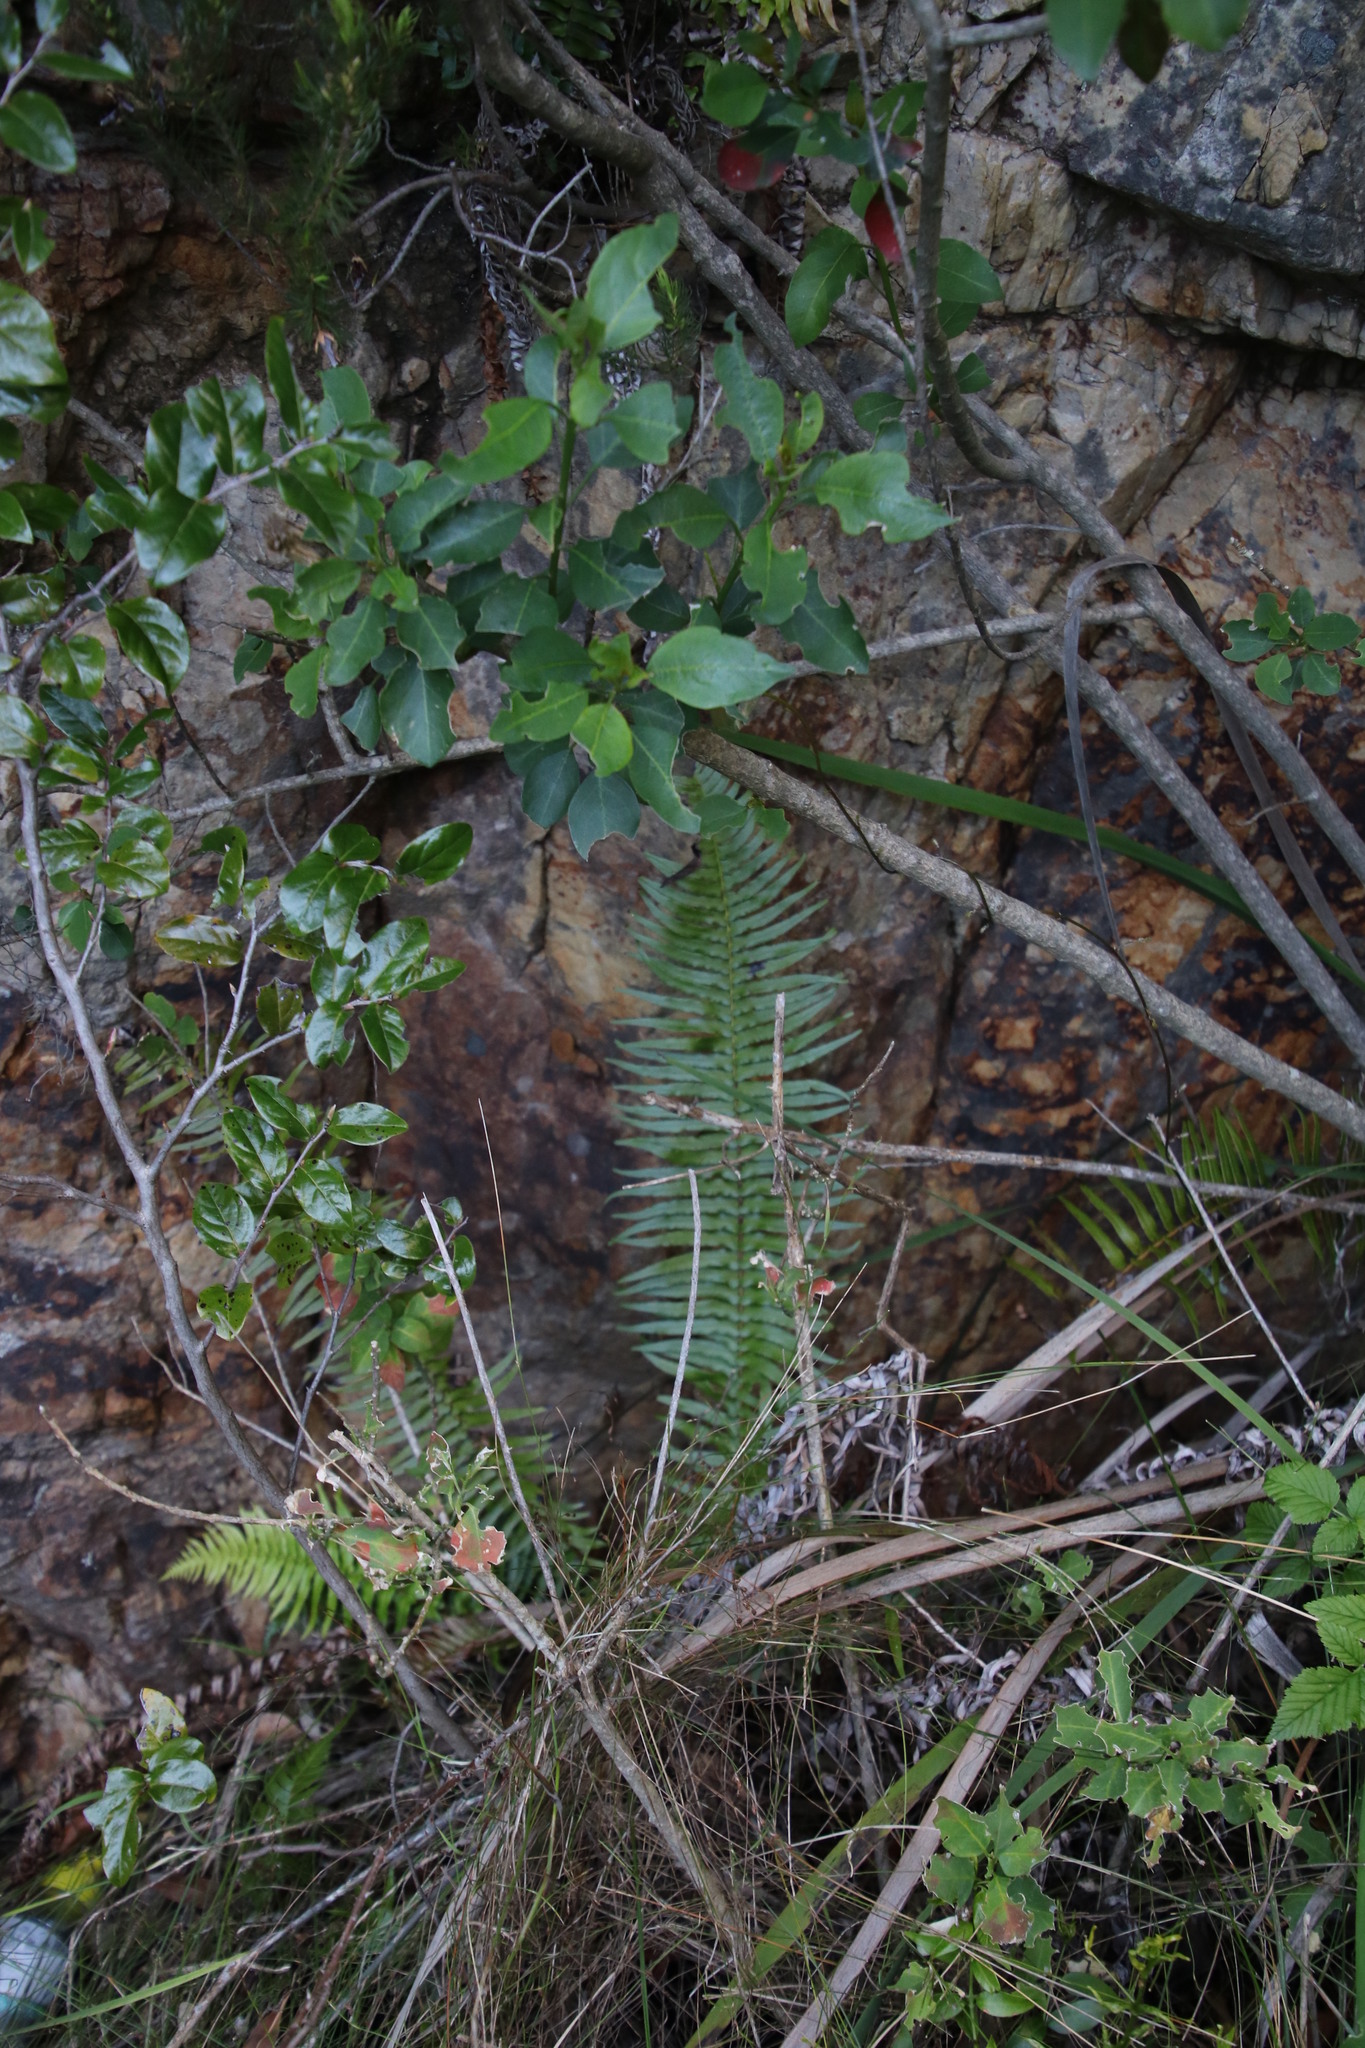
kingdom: Plantae
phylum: Tracheophyta
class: Polypodiopsida
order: Polypodiales
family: Blechnaceae
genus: Blechnum
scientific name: Blechnum punctulatum
